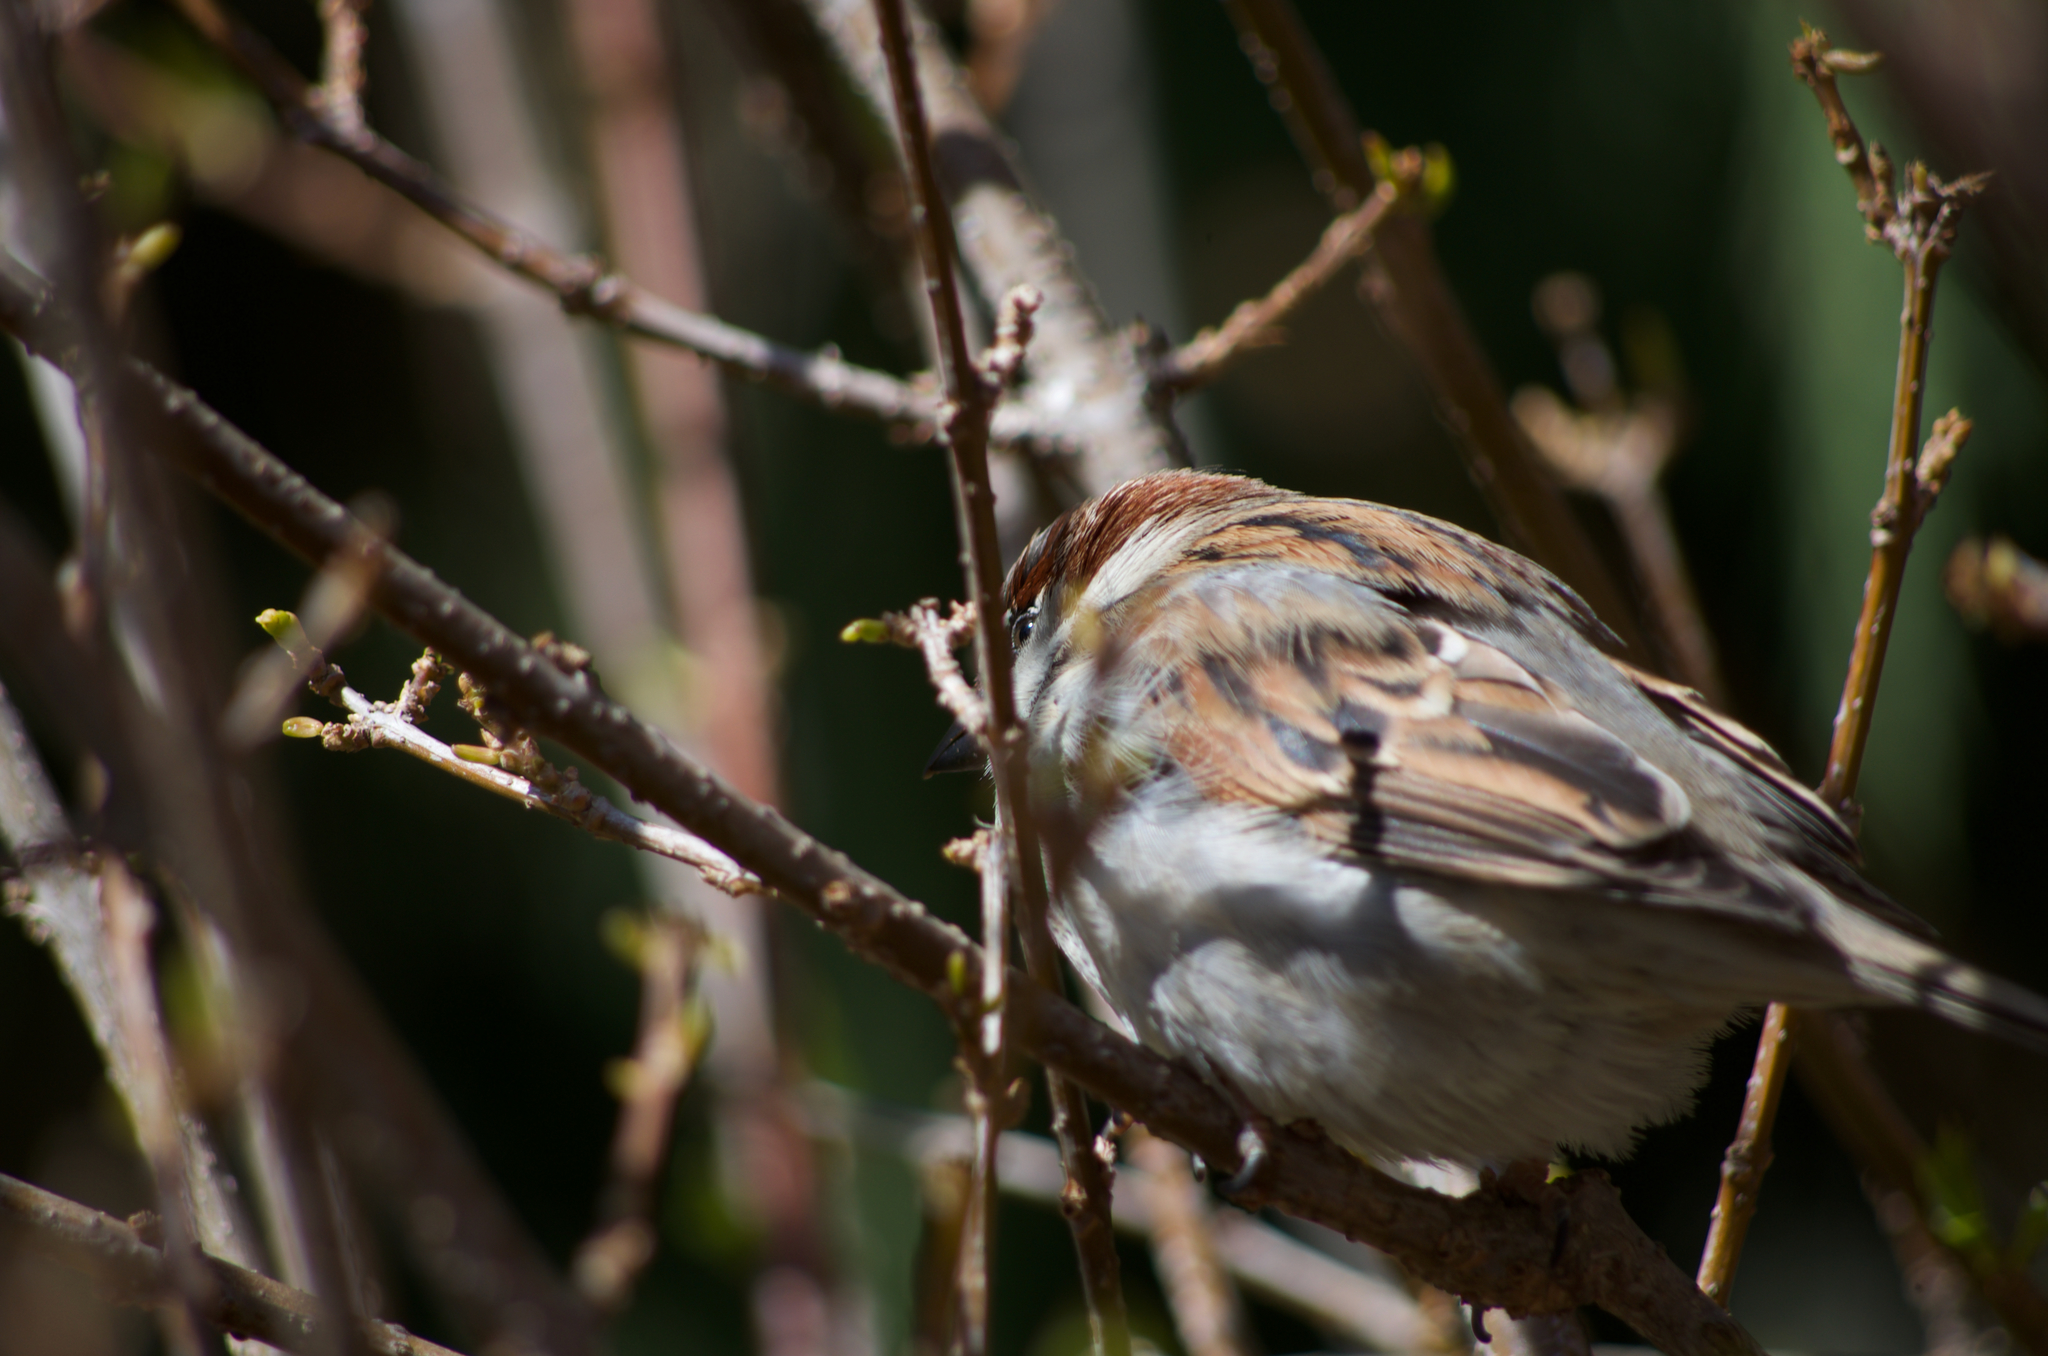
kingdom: Animalia
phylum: Chordata
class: Aves
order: Passeriformes
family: Passeridae
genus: Passer
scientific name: Passer domesticus
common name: House sparrow
